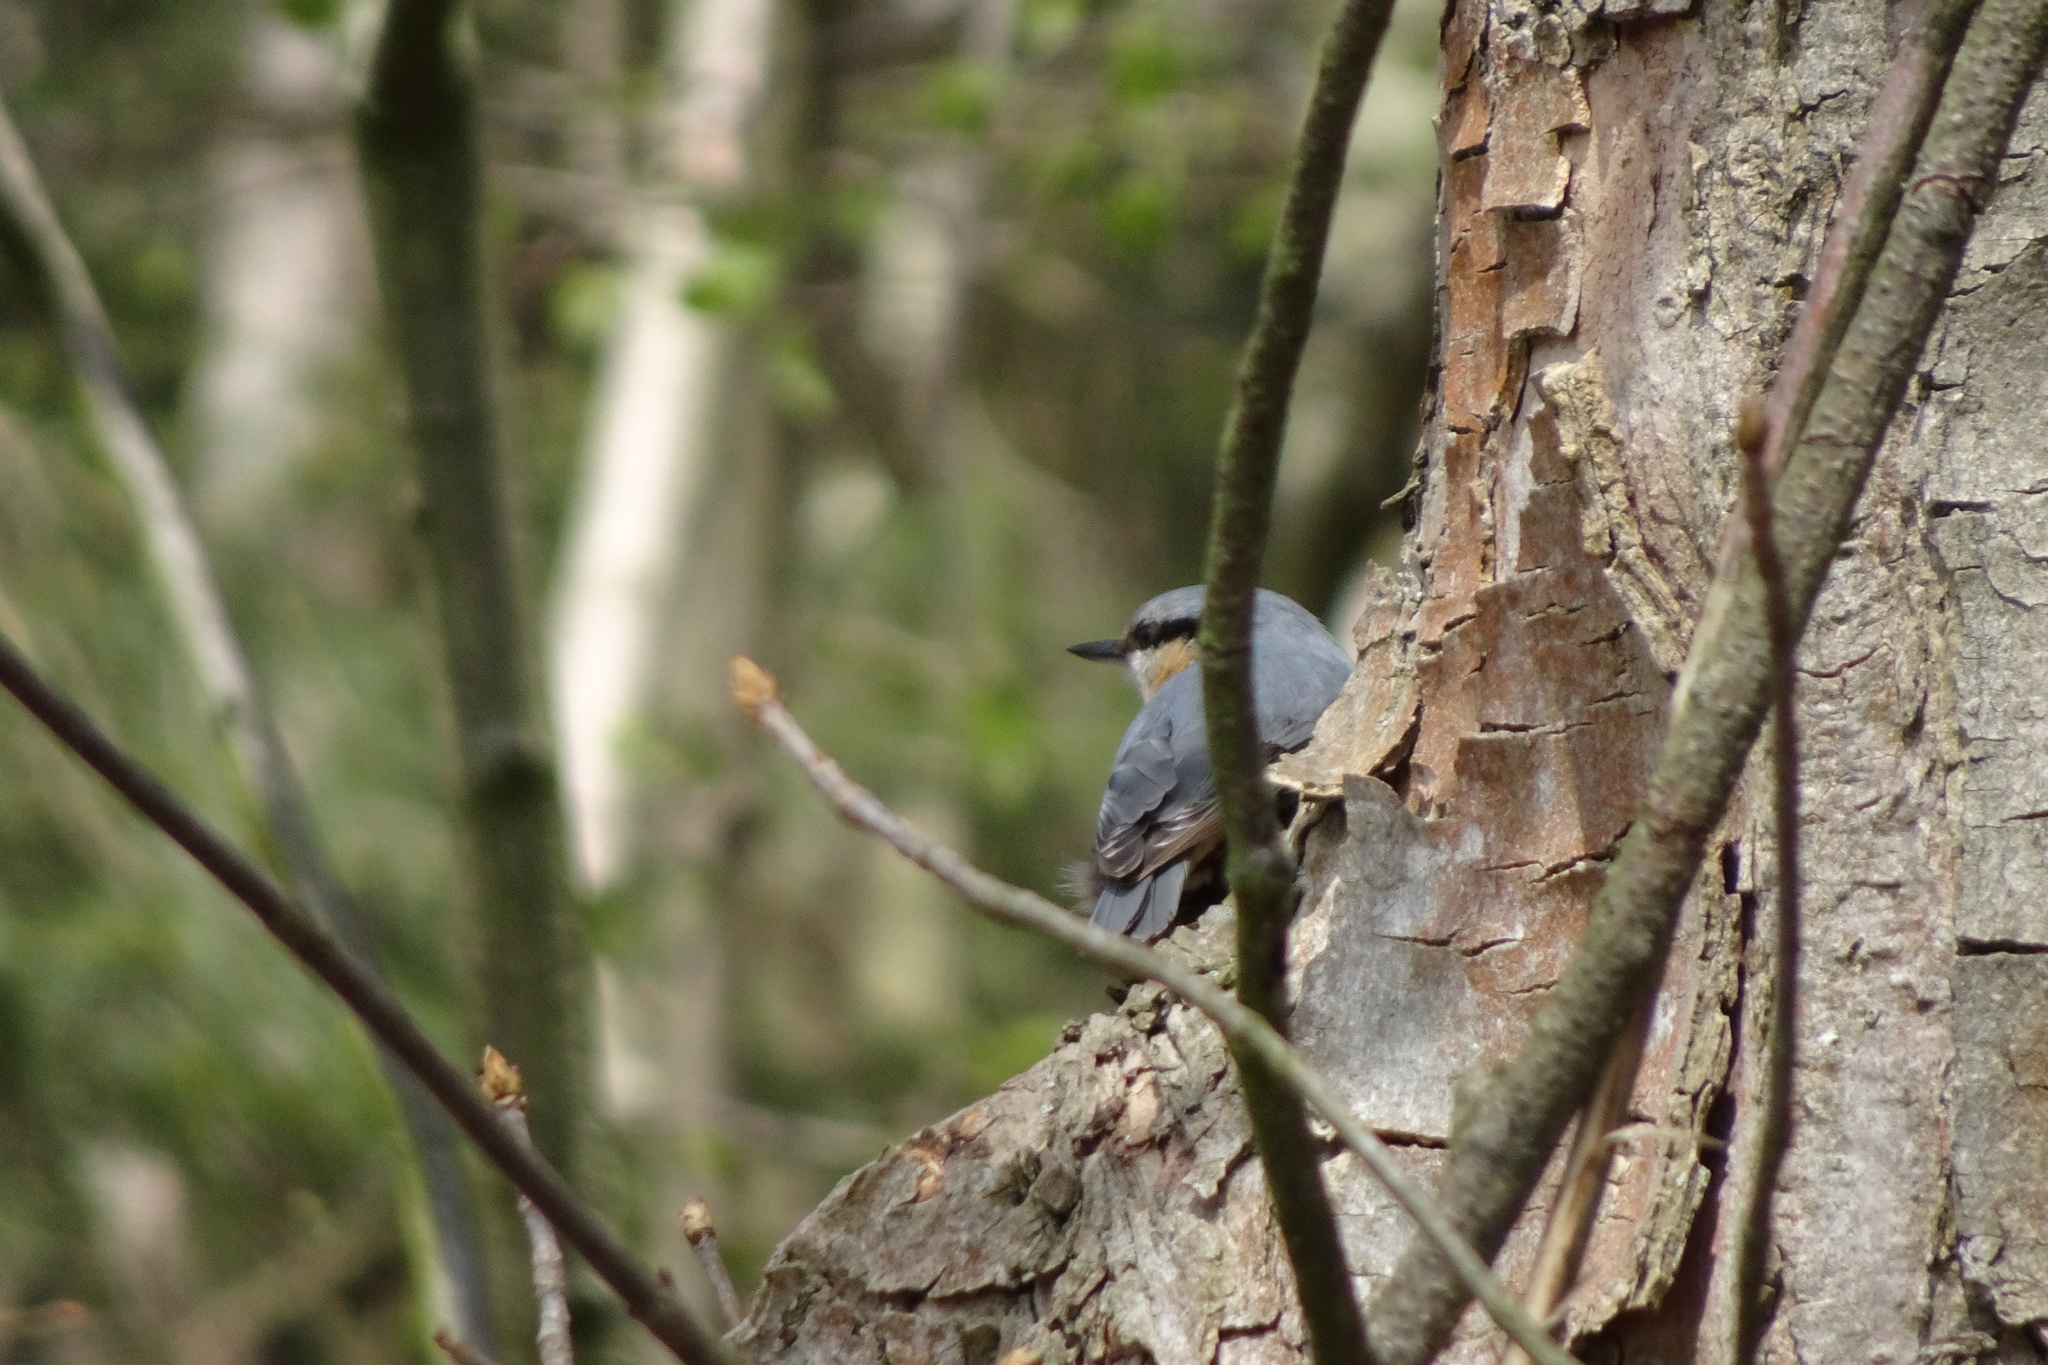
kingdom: Animalia
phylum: Chordata
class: Aves
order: Passeriformes
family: Sittidae
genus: Sitta
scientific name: Sitta europaea
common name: Eurasian nuthatch
